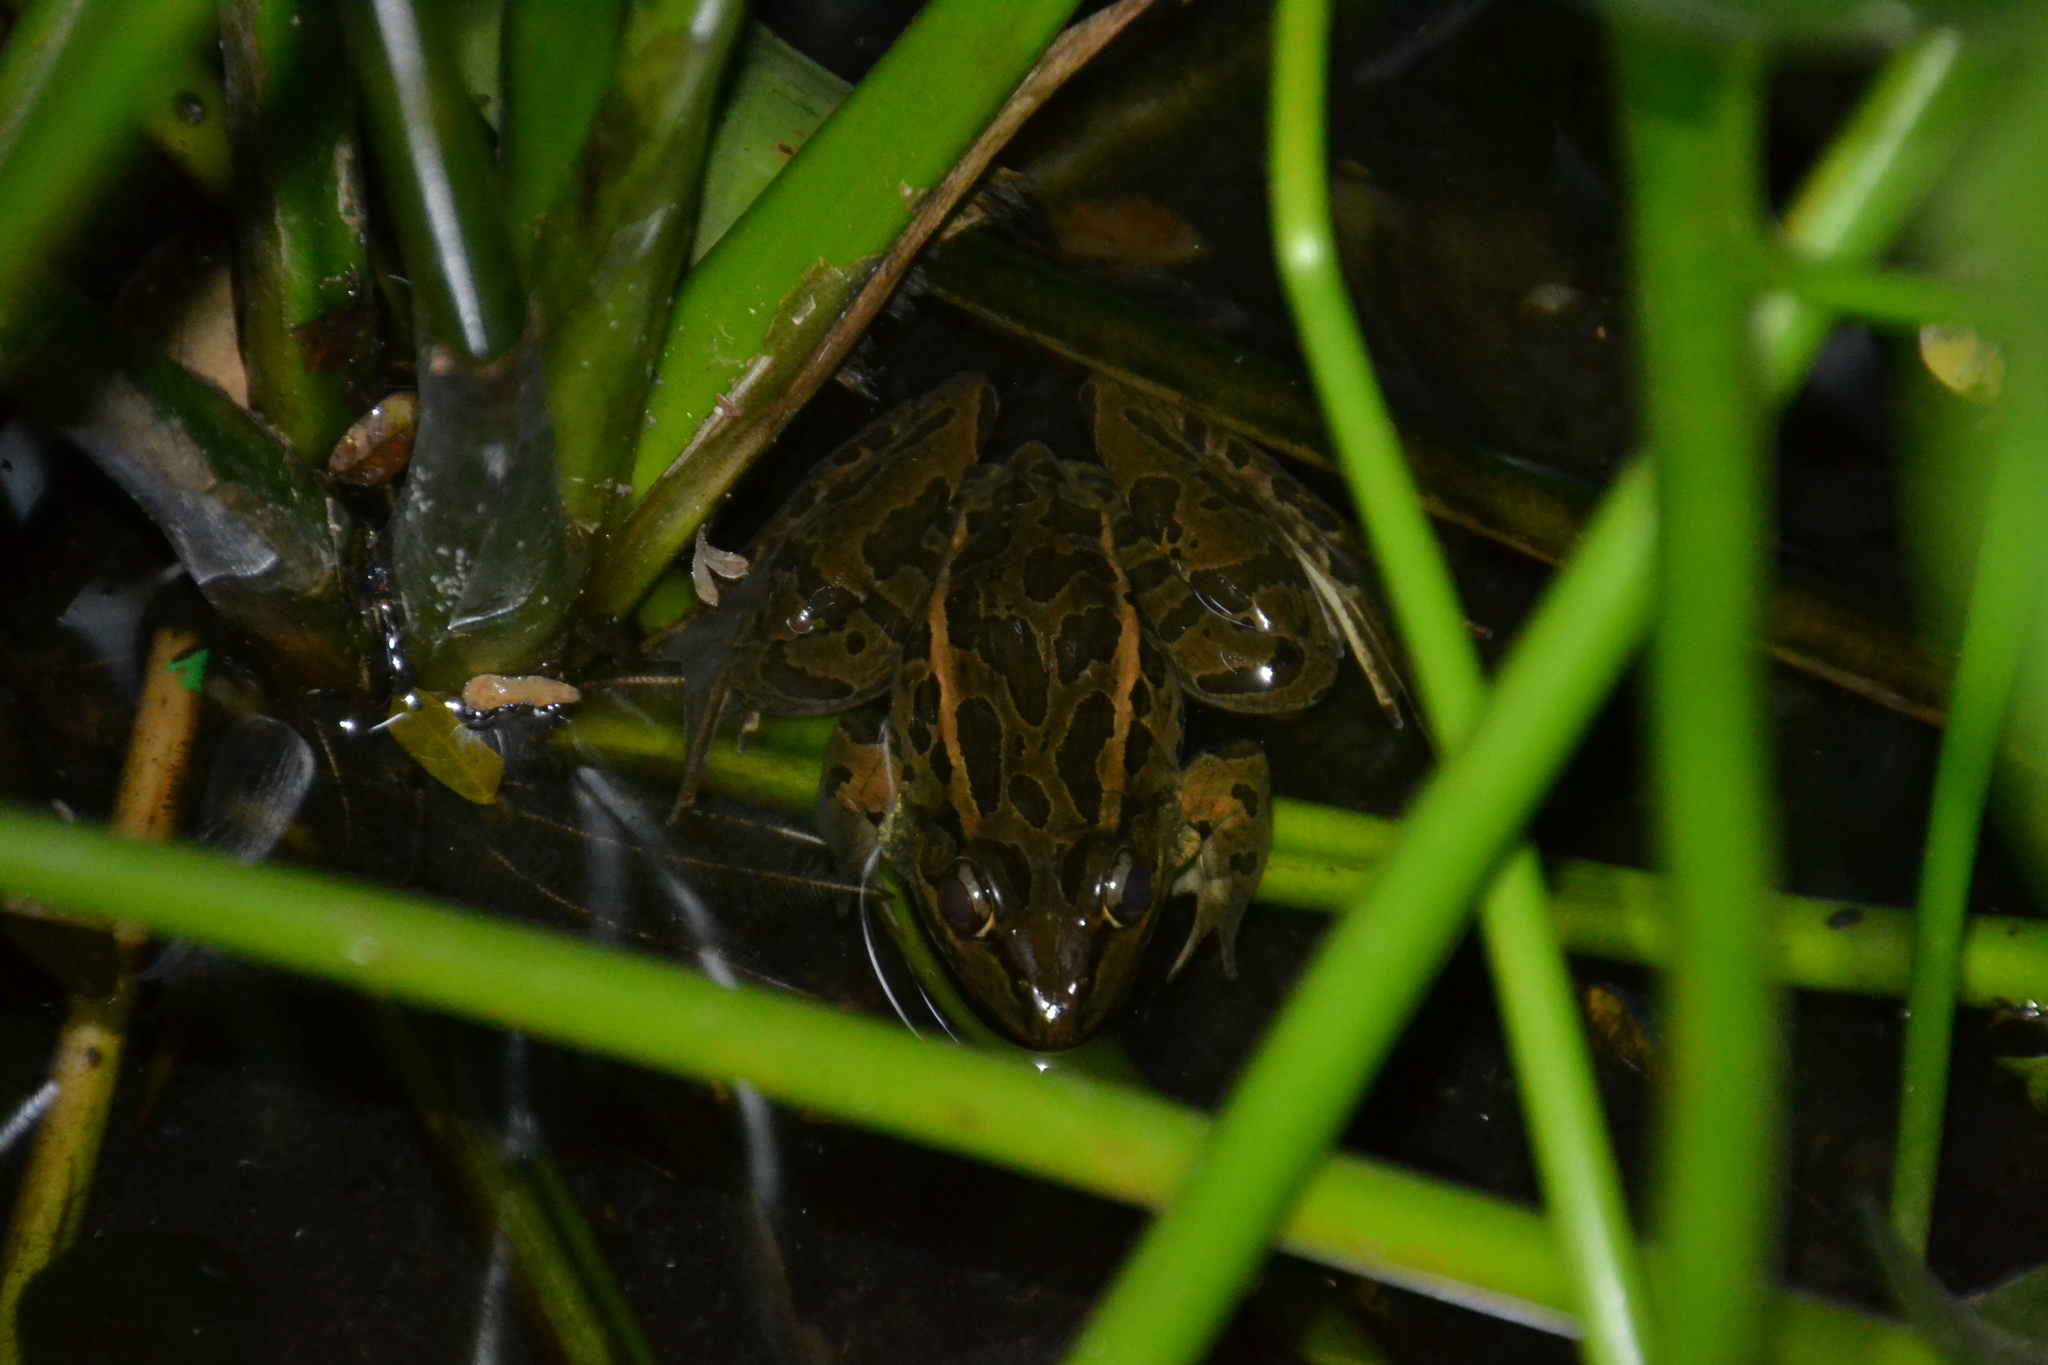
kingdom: Animalia
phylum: Chordata
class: Amphibia
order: Anura
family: Ranidae
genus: Lithobates
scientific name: Lithobates forreri
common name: Forrer's grass frog
